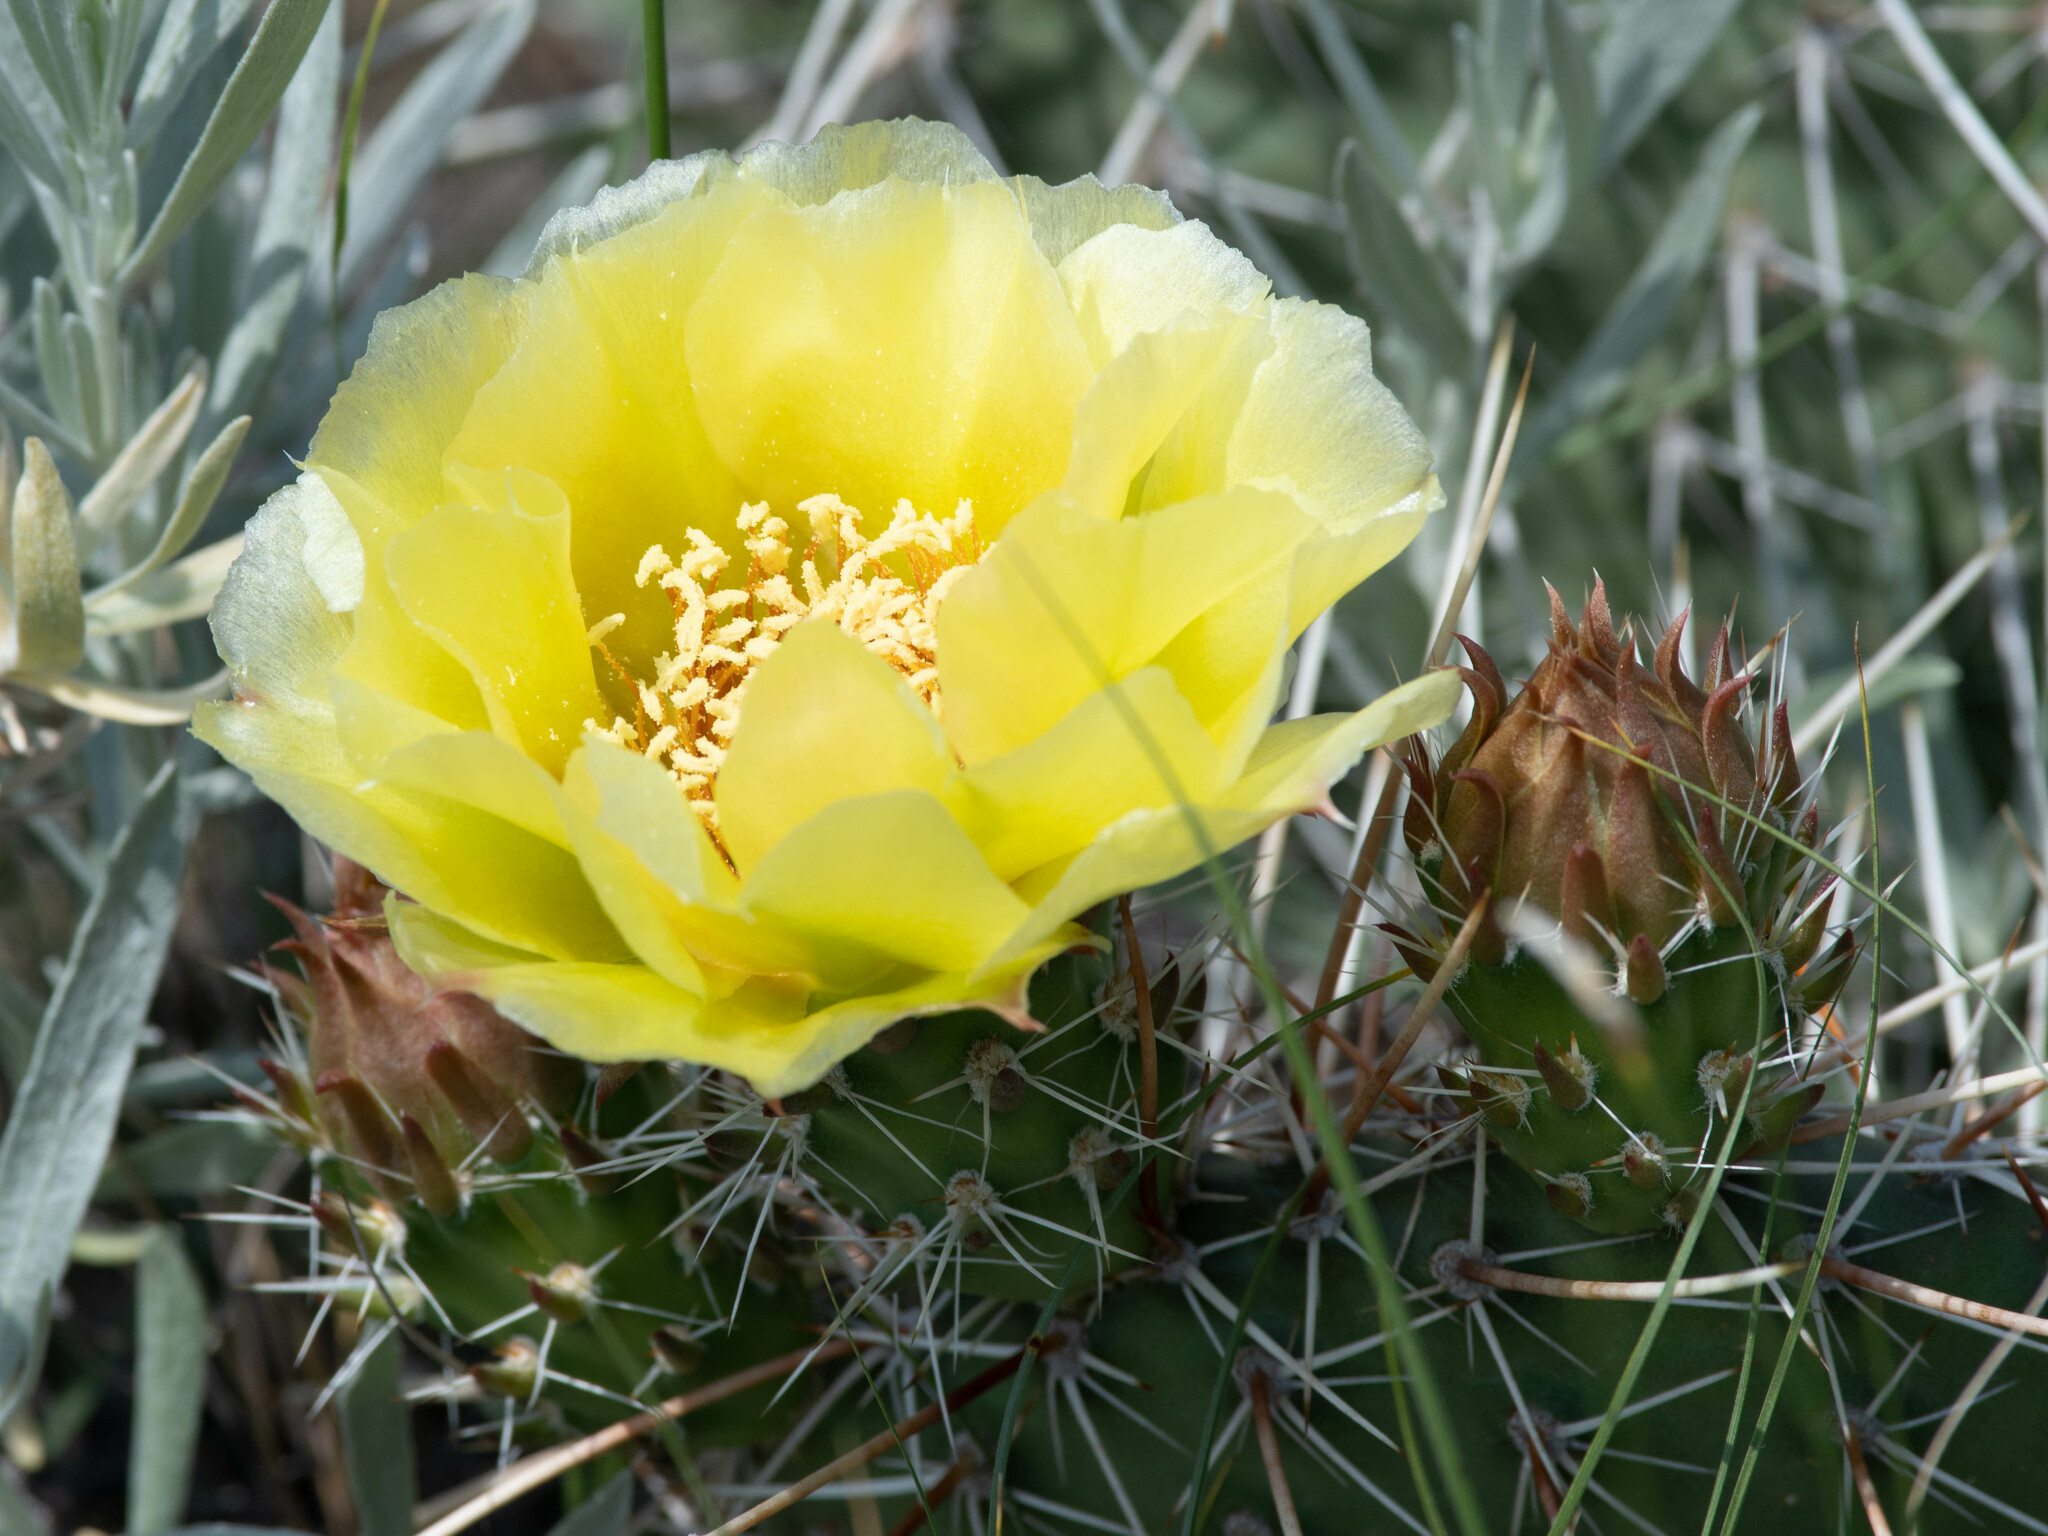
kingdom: Plantae
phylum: Tracheophyta
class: Magnoliopsida
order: Caryophyllales
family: Cactaceae
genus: Opuntia
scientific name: Opuntia polyacantha
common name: Plains prickly-pear
